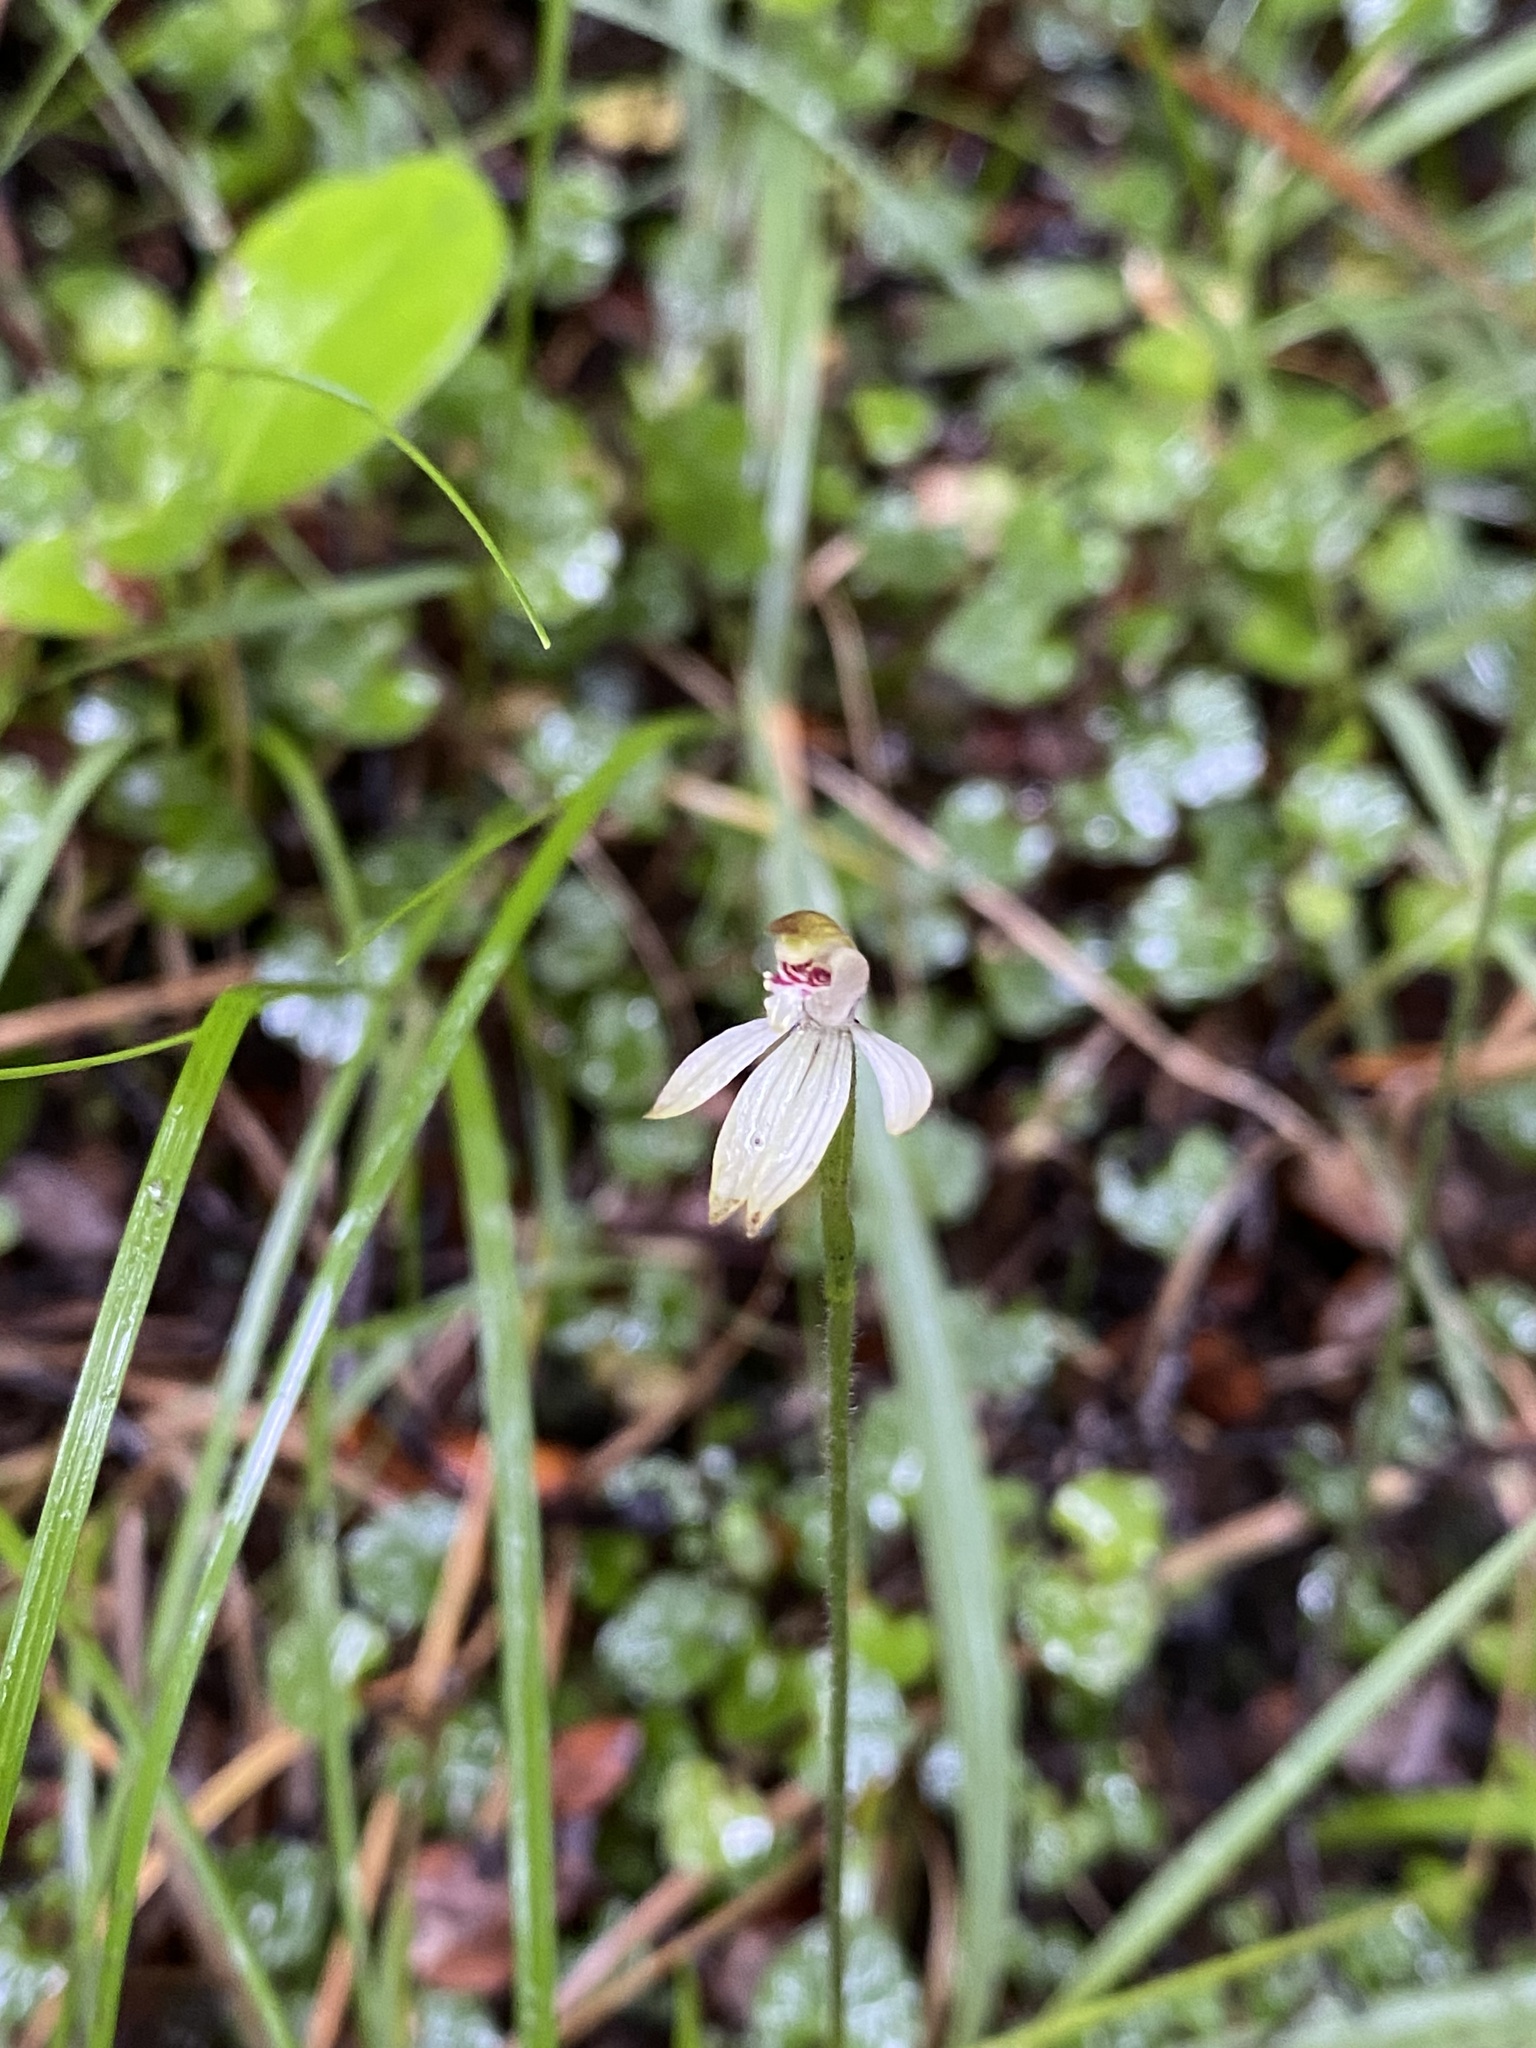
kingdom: Plantae
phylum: Tracheophyta
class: Liliopsida
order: Asparagales
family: Orchidaceae
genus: Caladenia
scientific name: Caladenia chlorostyla
